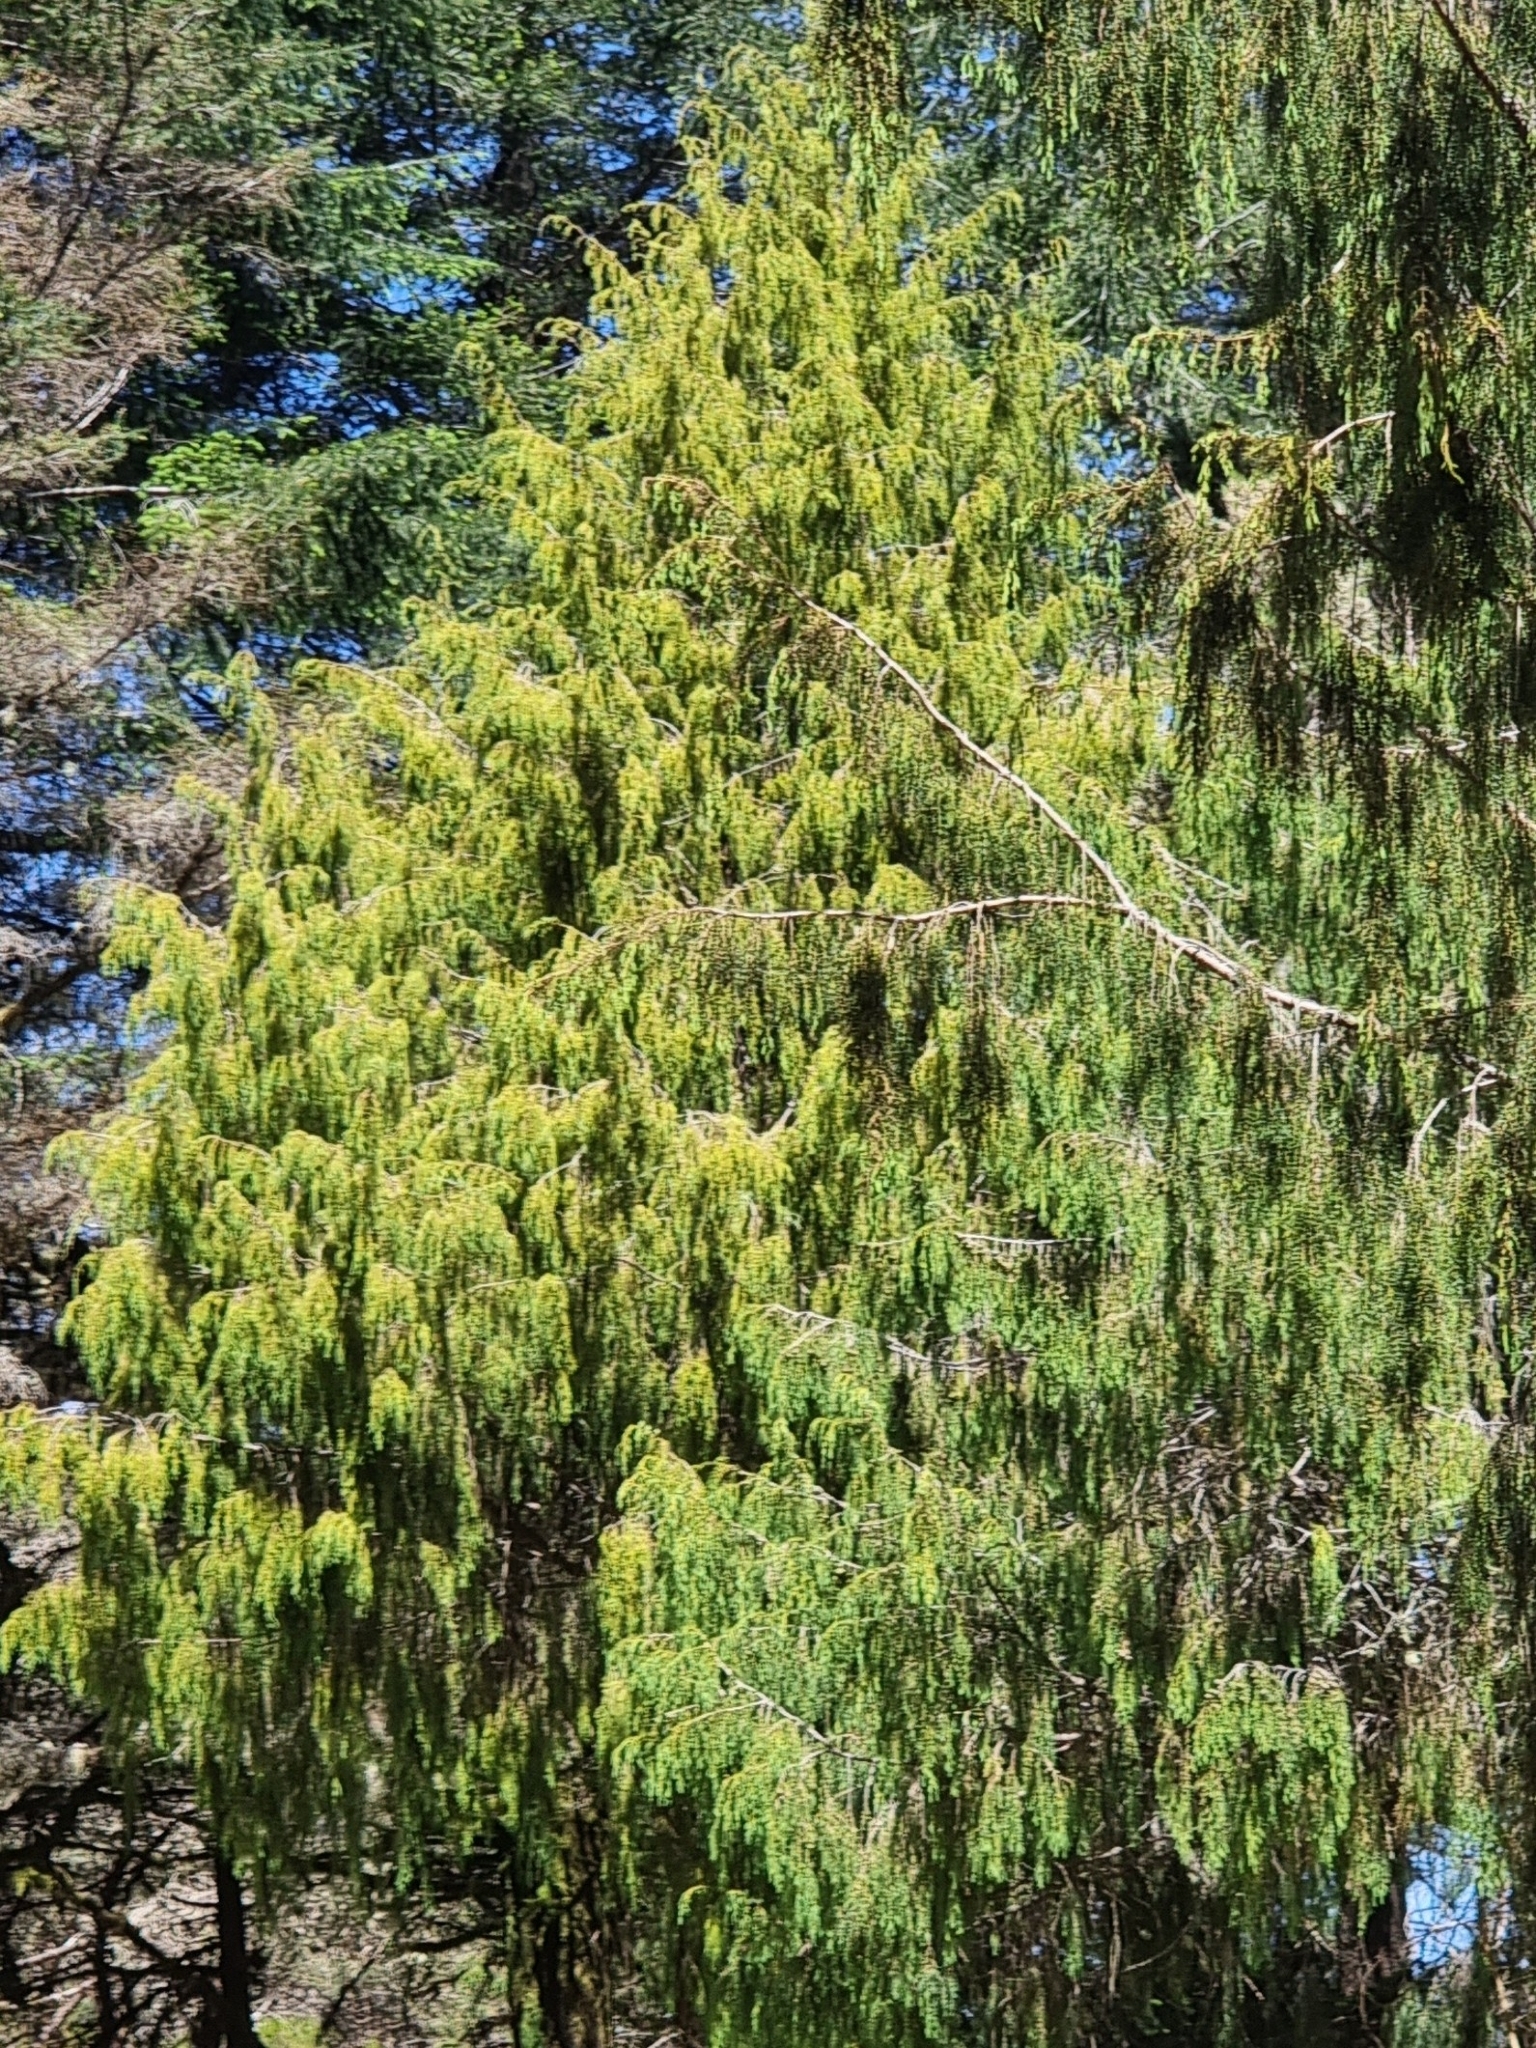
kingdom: Plantae
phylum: Tracheophyta
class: Pinopsida
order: Pinales
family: Cupressaceae
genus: Juniperus
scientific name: Juniperus cedrus
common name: Canary islands juniper
